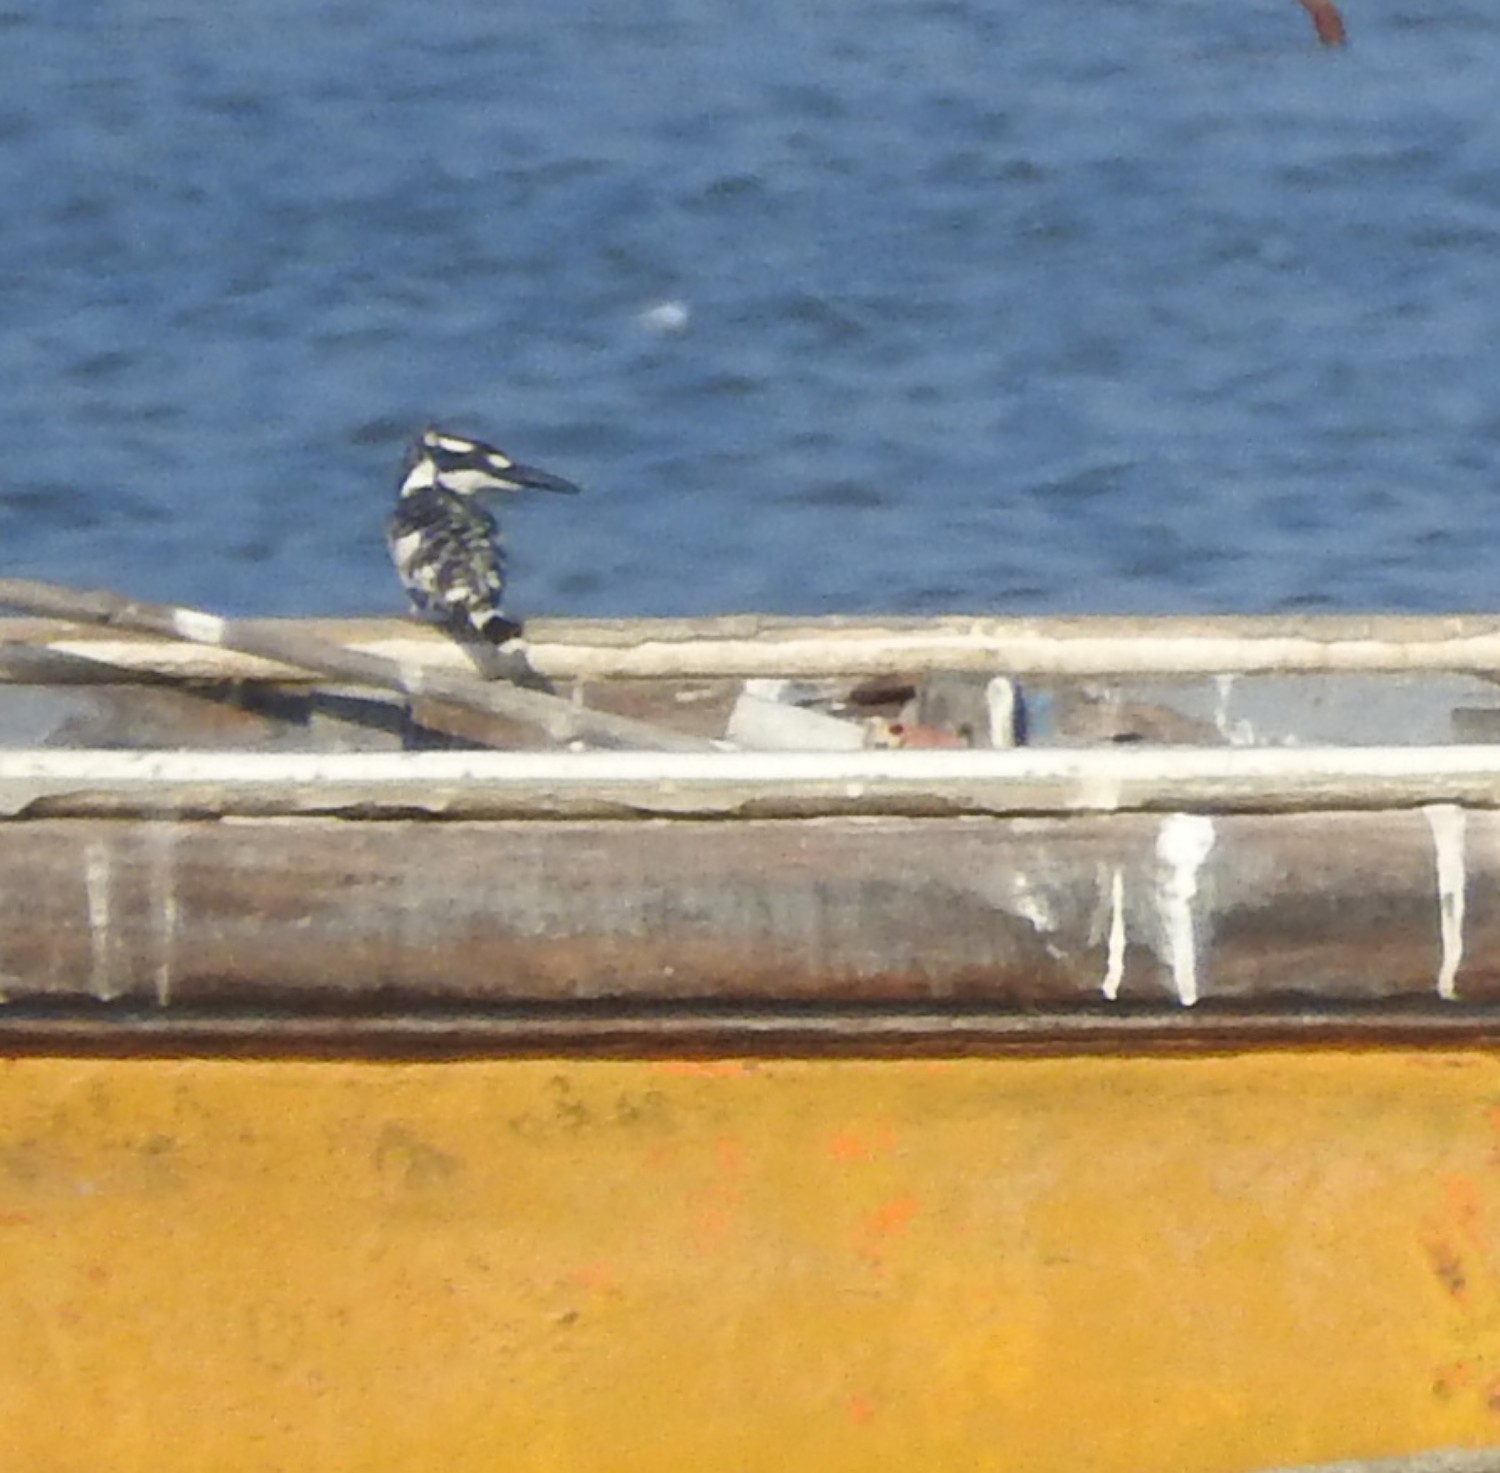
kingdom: Animalia
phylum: Chordata
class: Aves
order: Coraciiformes
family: Alcedinidae
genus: Ceryle
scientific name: Ceryle rudis
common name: Pied kingfisher
